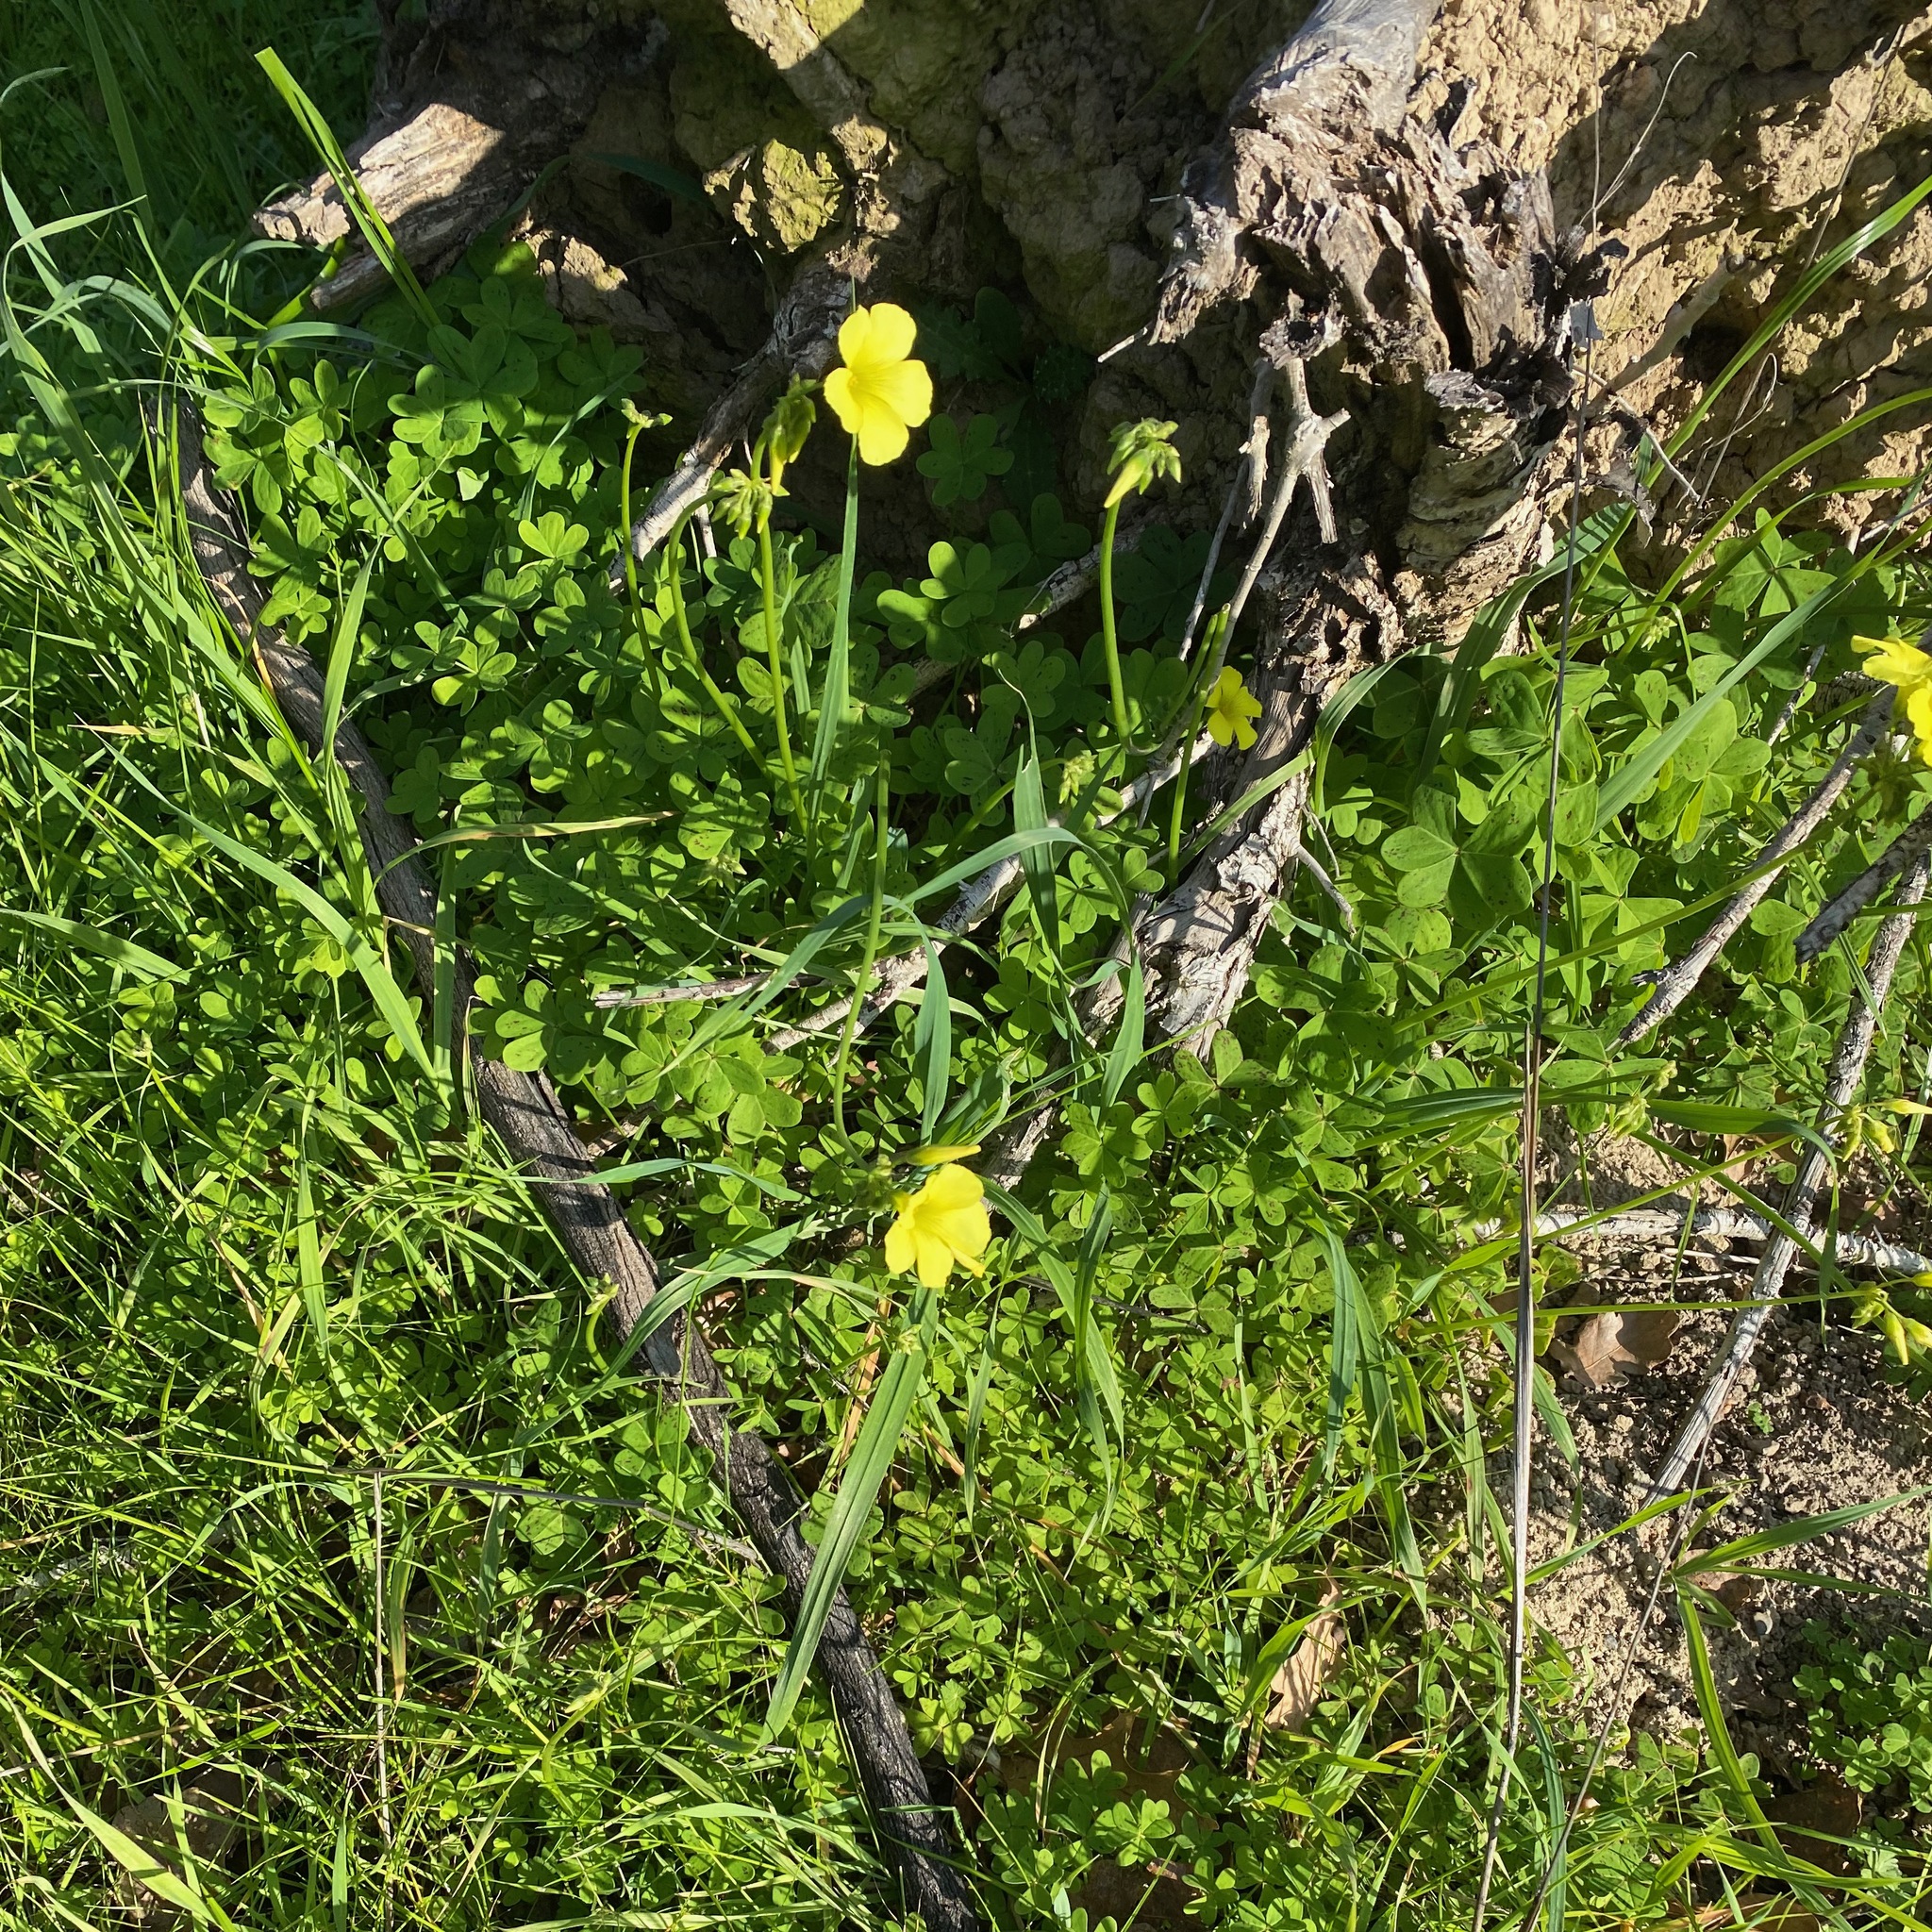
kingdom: Plantae
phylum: Tracheophyta
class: Magnoliopsida
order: Oxalidales
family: Oxalidaceae
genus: Oxalis
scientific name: Oxalis pes-caprae
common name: Bermuda-buttercup
